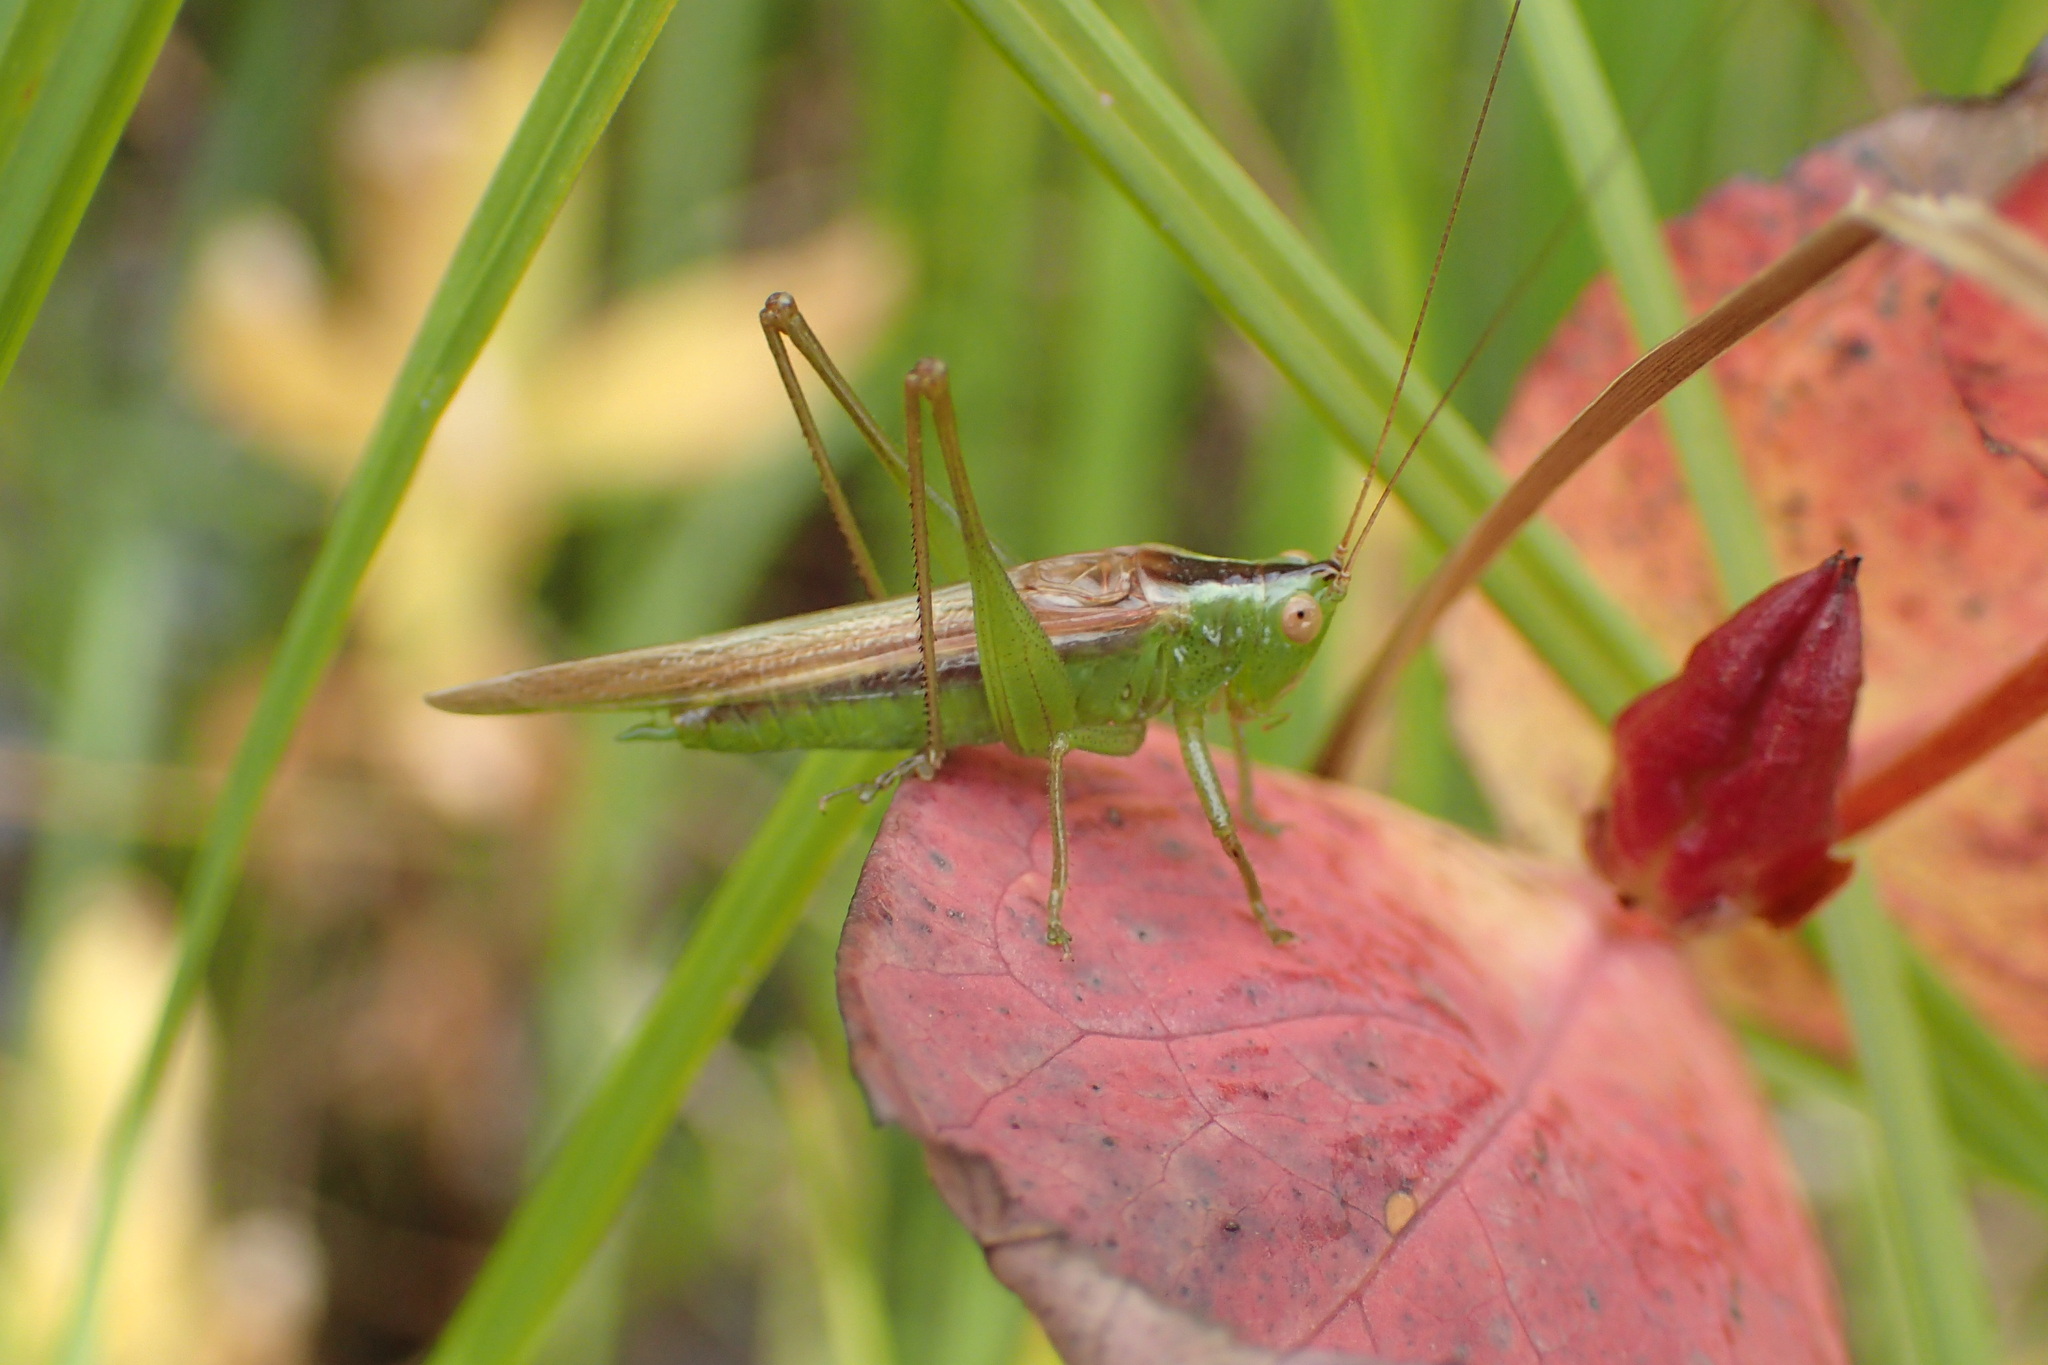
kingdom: Animalia
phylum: Arthropoda
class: Insecta
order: Orthoptera
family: Tettigoniidae
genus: Conocephalus
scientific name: Conocephalus fasciatus
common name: Slender meadow katydid
